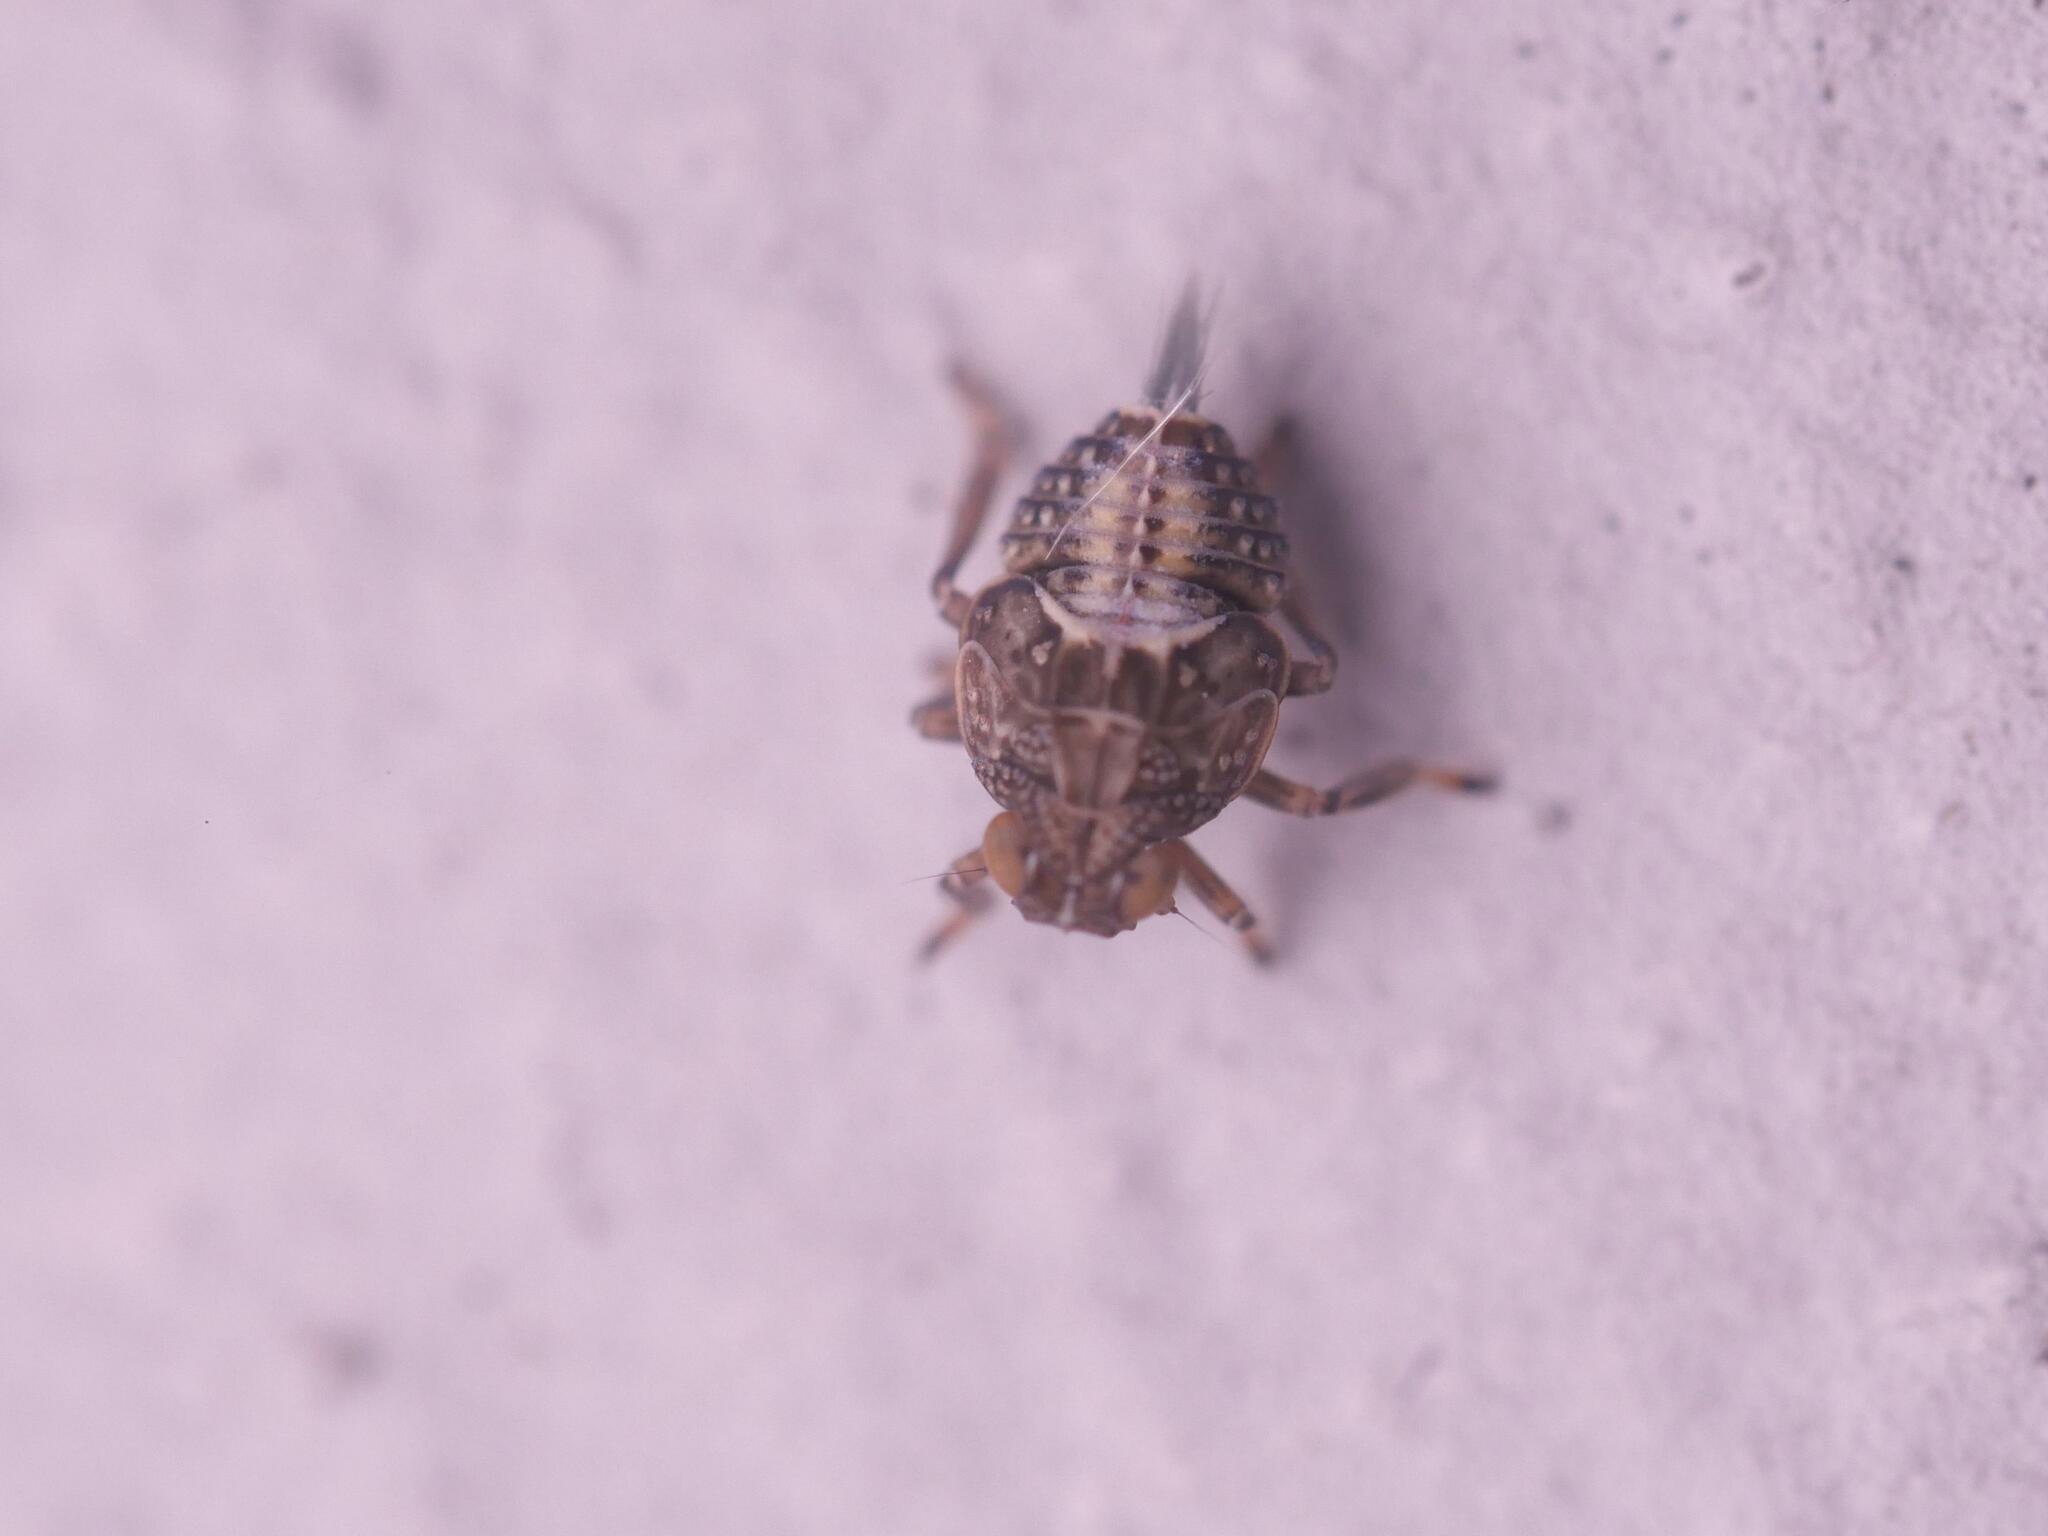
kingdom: Animalia
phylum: Arthropoda
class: Insecta
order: Hemiptera
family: Issidae
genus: Issus
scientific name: Issus coleoptratus
